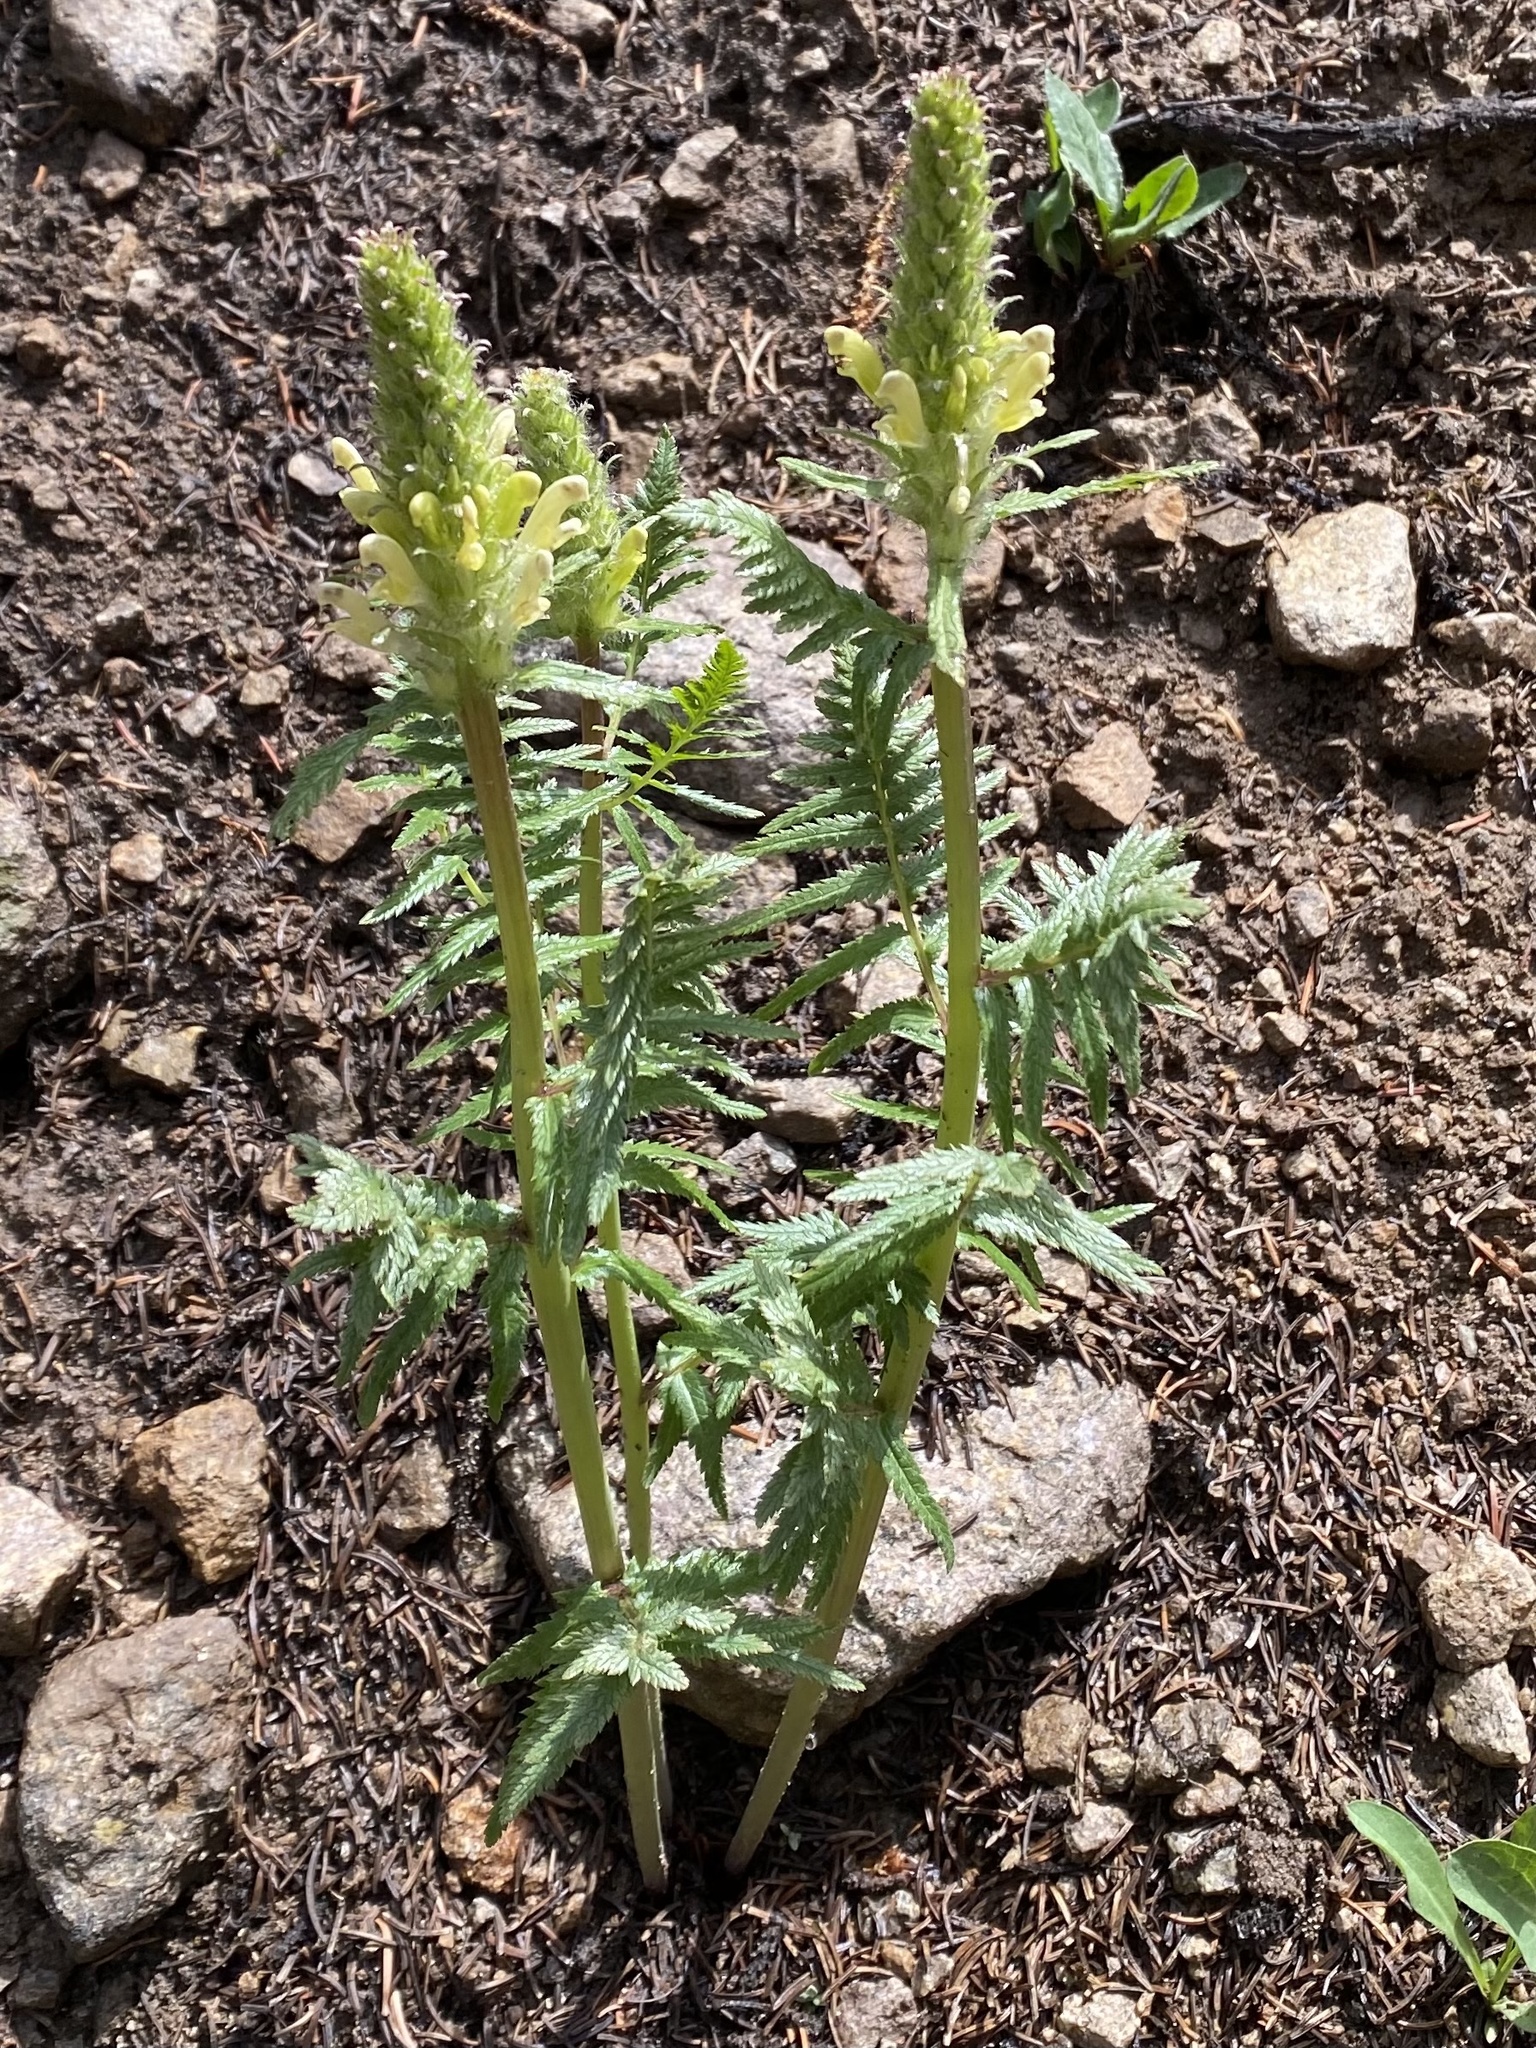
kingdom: Plantae
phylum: Tracheophyta
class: Magnoliopsida
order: Lamiales
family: Orobanchaceae
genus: Pedicularis
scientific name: Pedicularis bracteosa
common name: Bracted lousewort
